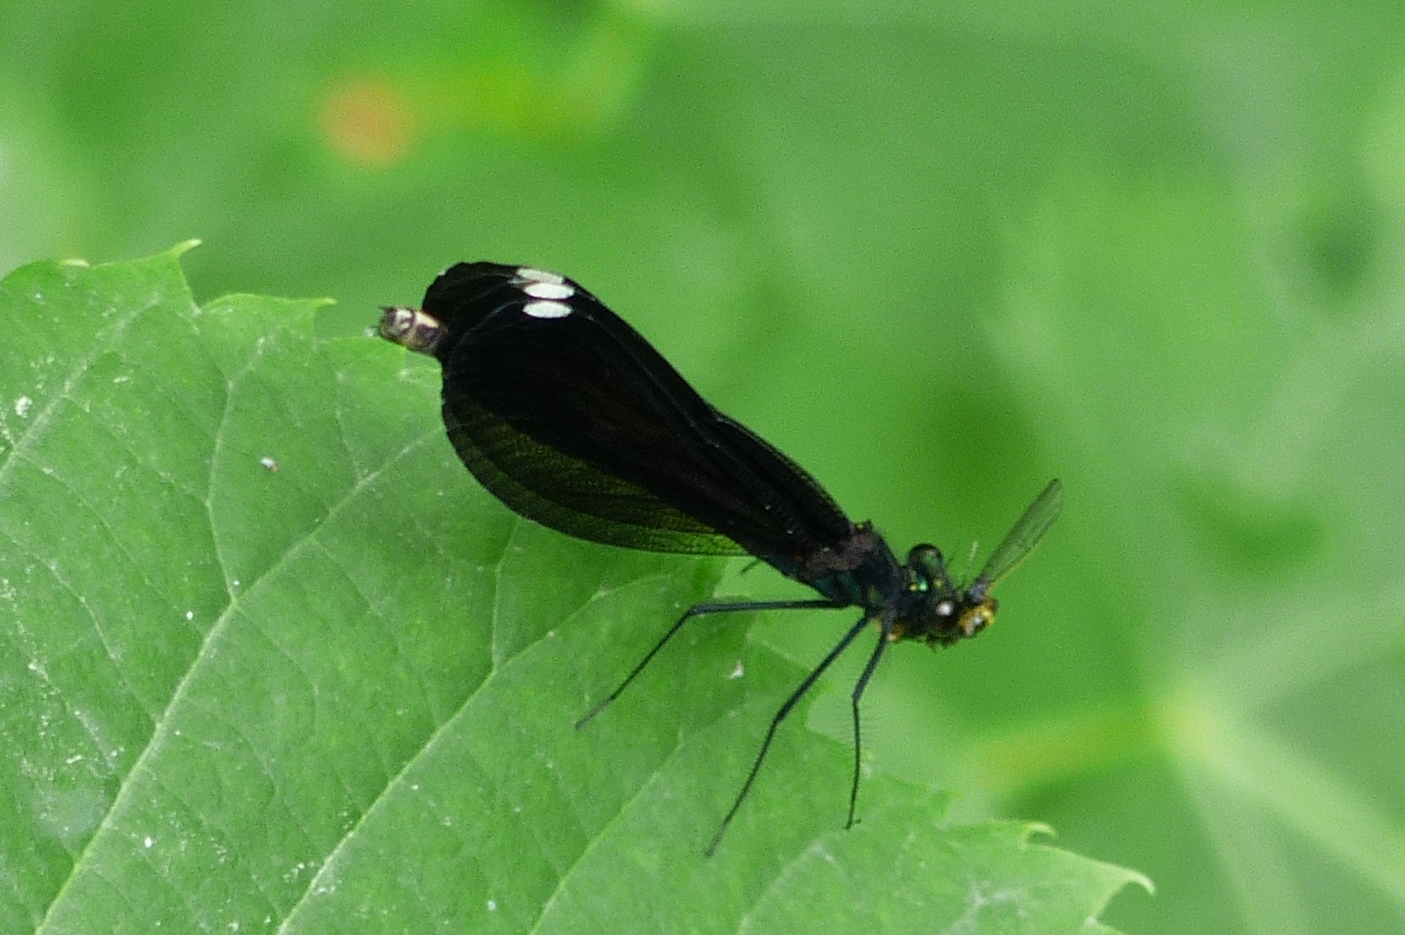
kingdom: Animalia
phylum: Arthropoda
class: Insecta
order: Odonata
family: Calopterygidae
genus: Calopteryx
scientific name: Calopteryx maculata
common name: Ebony jewelwing
